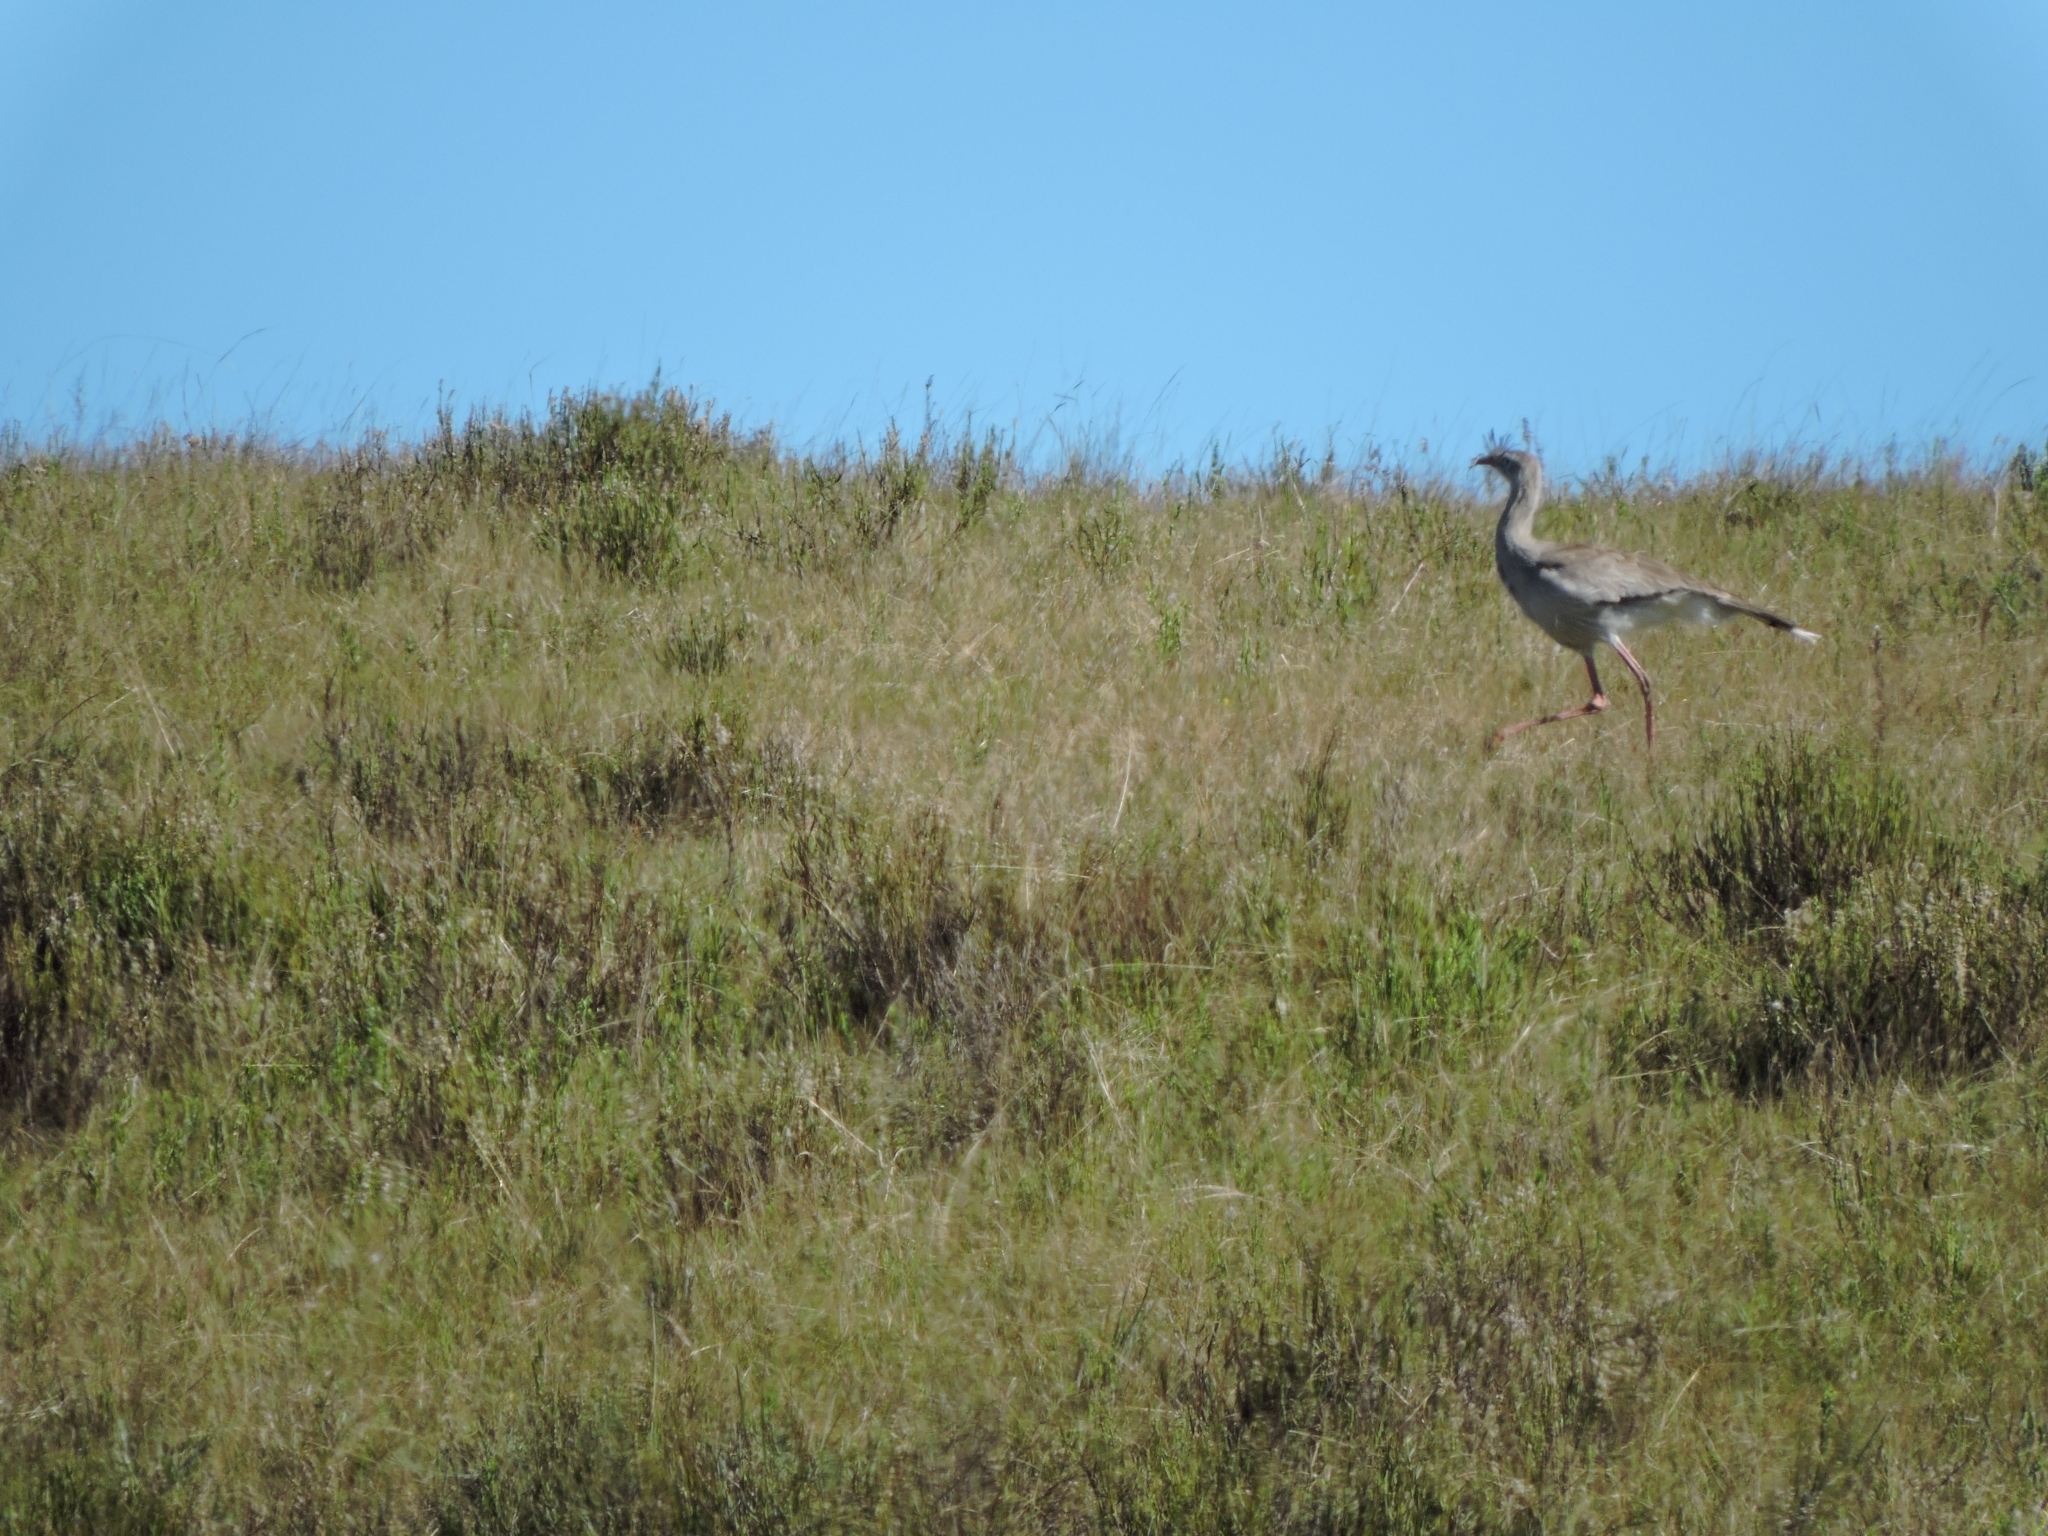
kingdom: Animalia
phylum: Chordata
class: Aves
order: Cariamiformes
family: Cariamidae
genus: Cariama
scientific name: Cariama cristata
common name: Red-legged seriema
